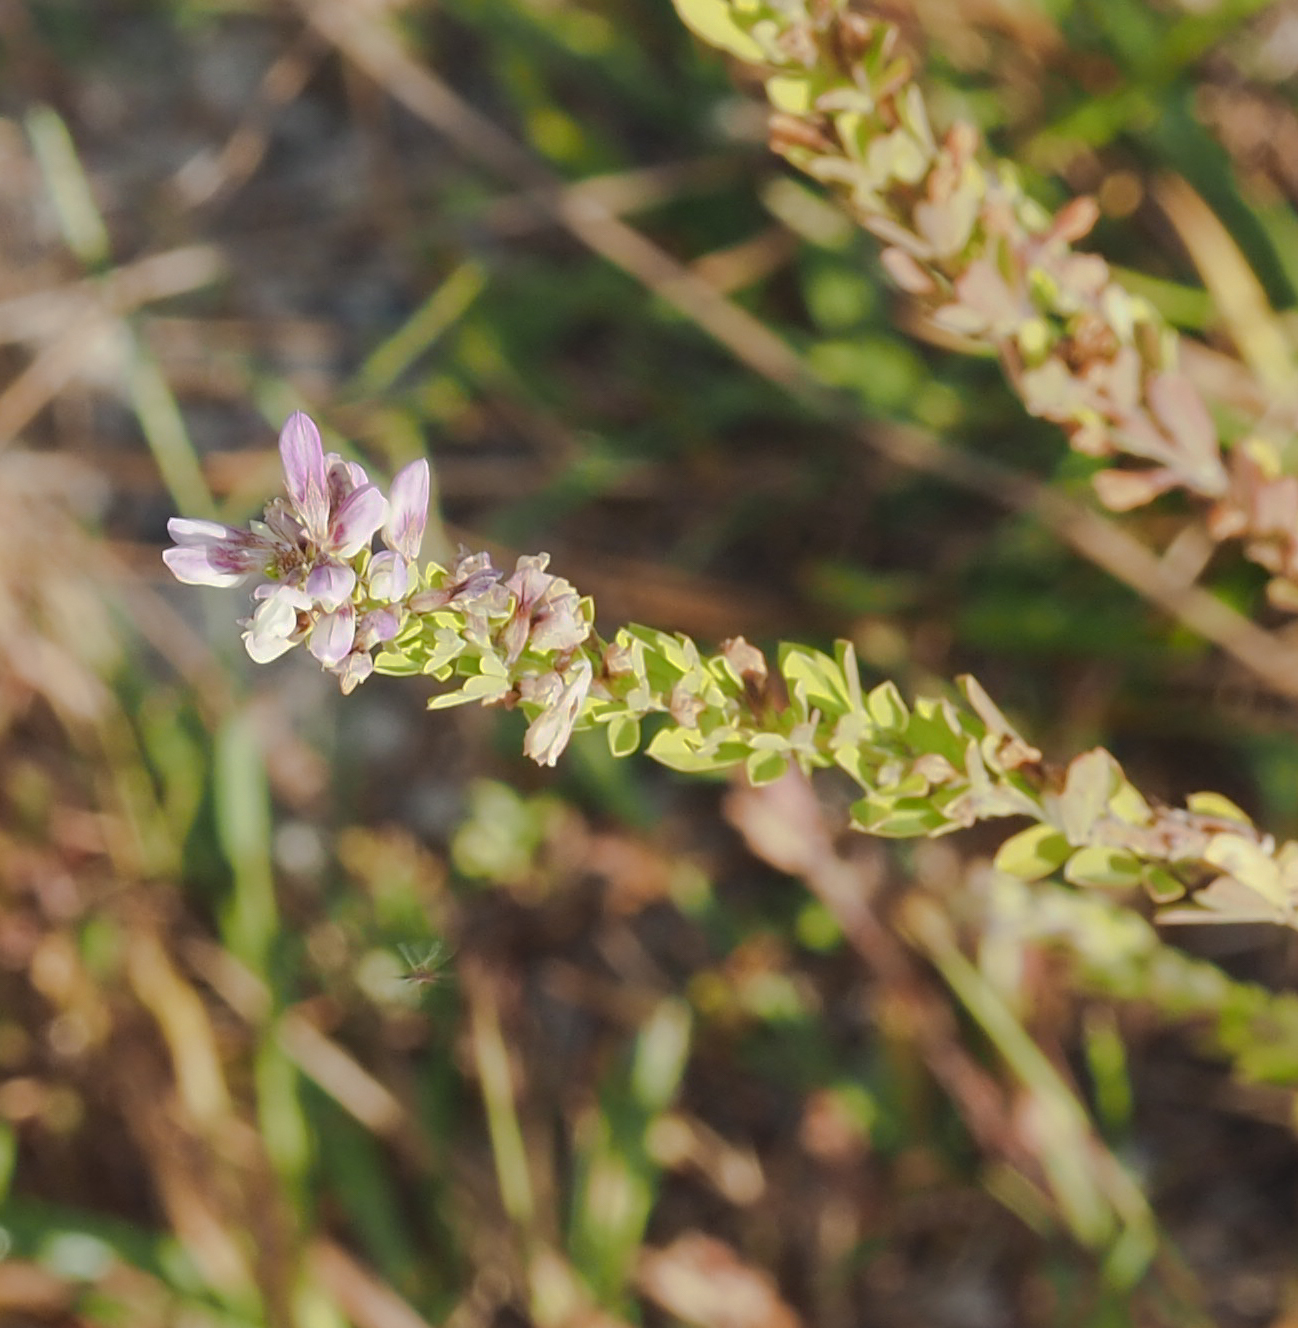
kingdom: Plantae
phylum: Tracheophyta
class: Magnoliopsida
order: Fabales
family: Fabaceae
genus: Lespedeza
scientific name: Lespedeza cuneata
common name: Chinese bush-clover
